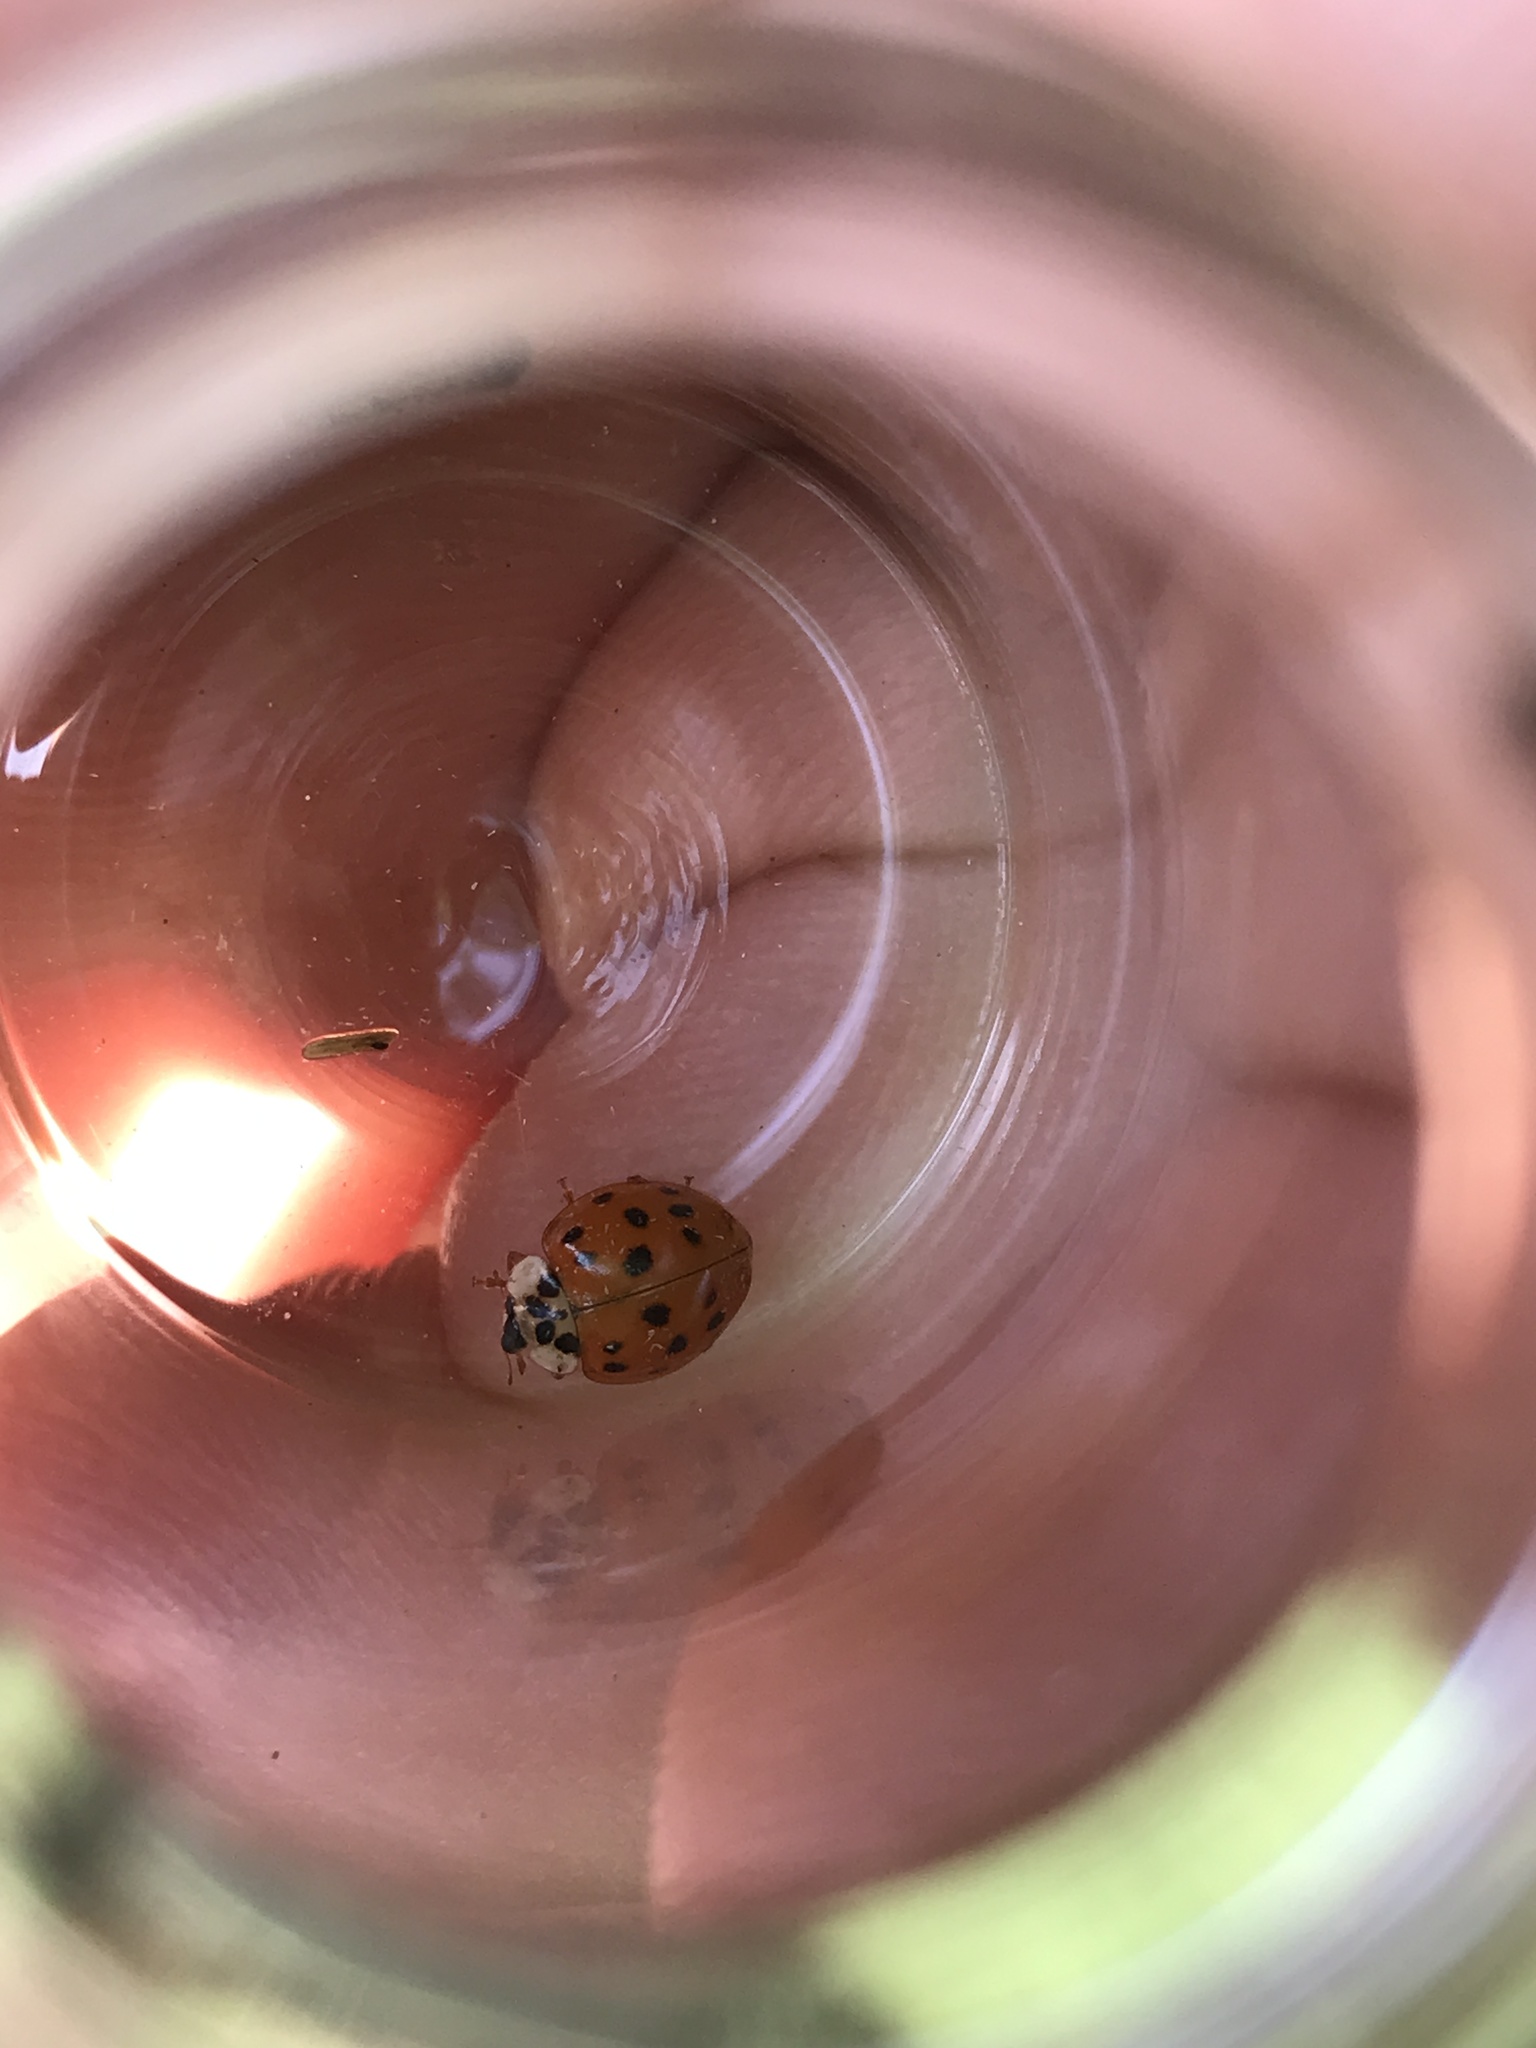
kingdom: Animalia
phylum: Arthropoda
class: Insecta
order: Coleoptera
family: Coccinellidae
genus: Harmonia
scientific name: Harmonia axyridis
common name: Harlequin ladybird
